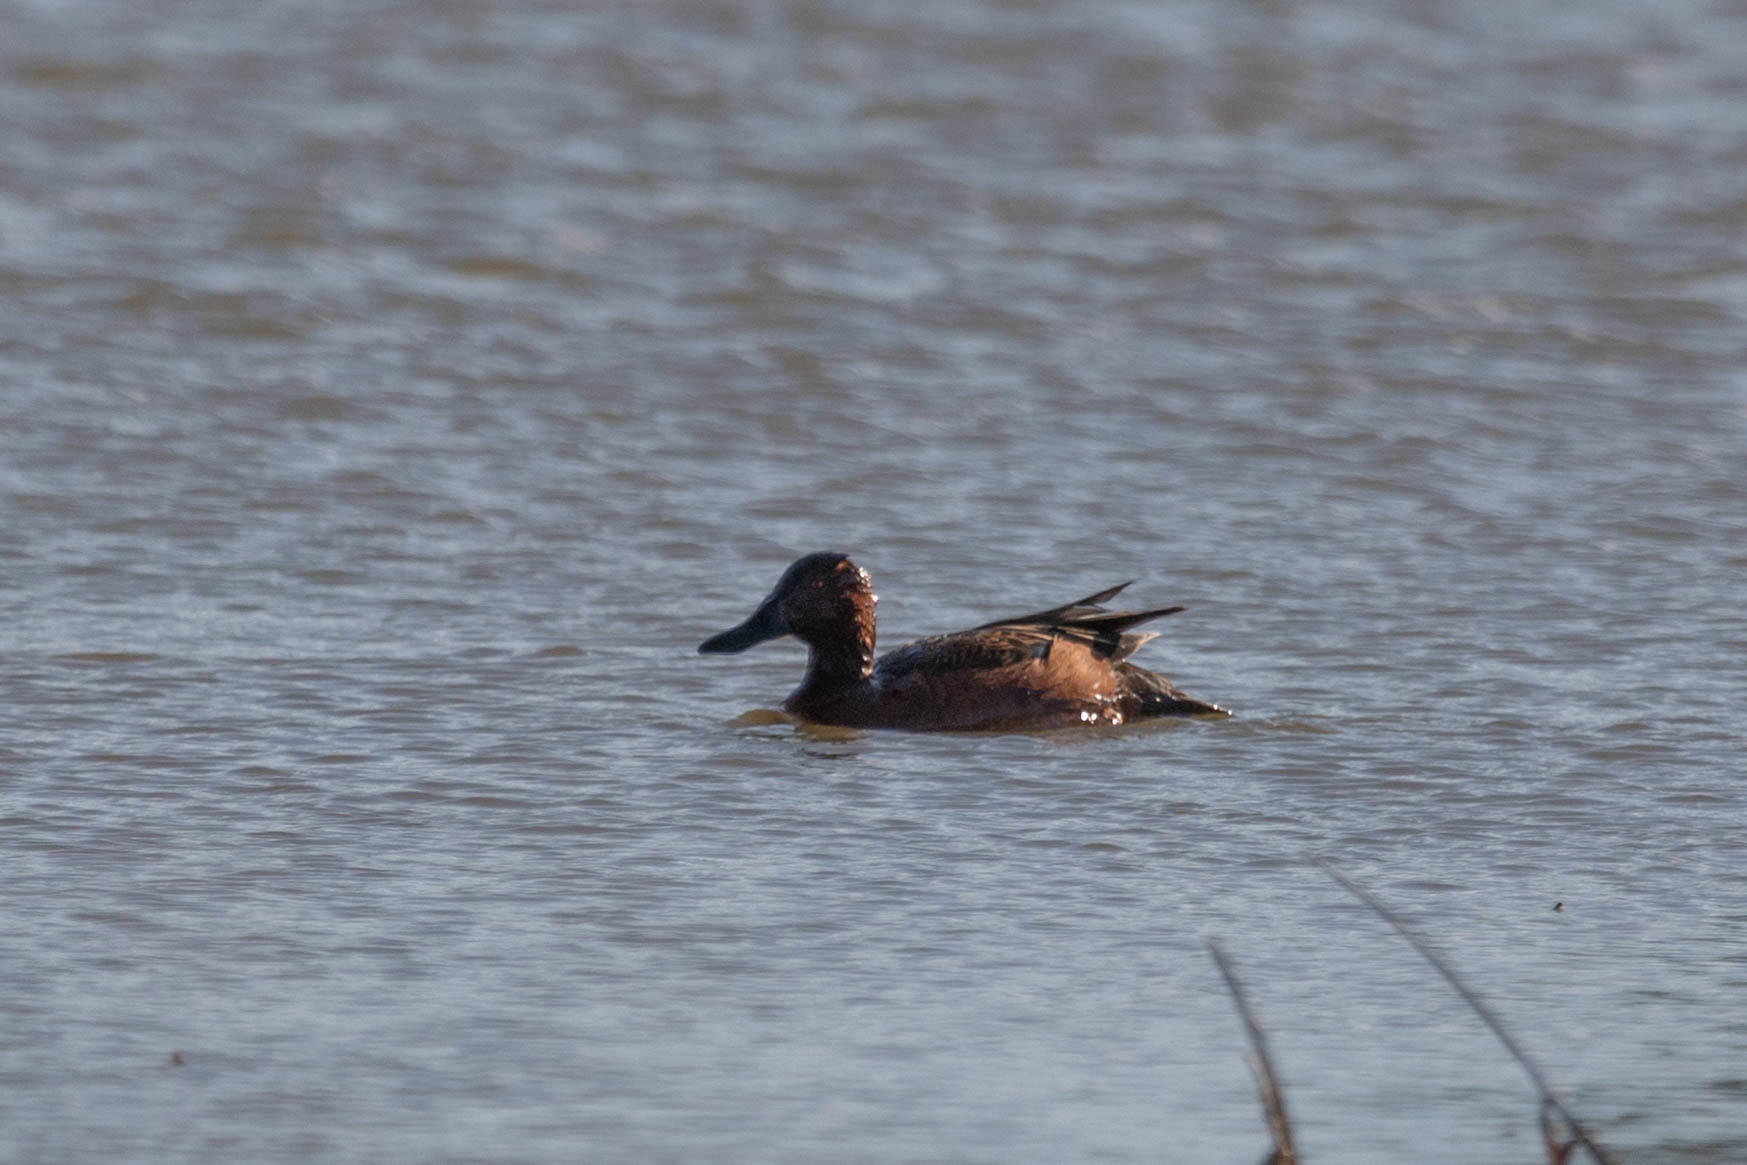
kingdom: Animalia
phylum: Chordata
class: Aves
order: Anseriformes
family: Anatidae
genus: Spatula
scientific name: Spatula cyanoptera
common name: Cinnamon teal
